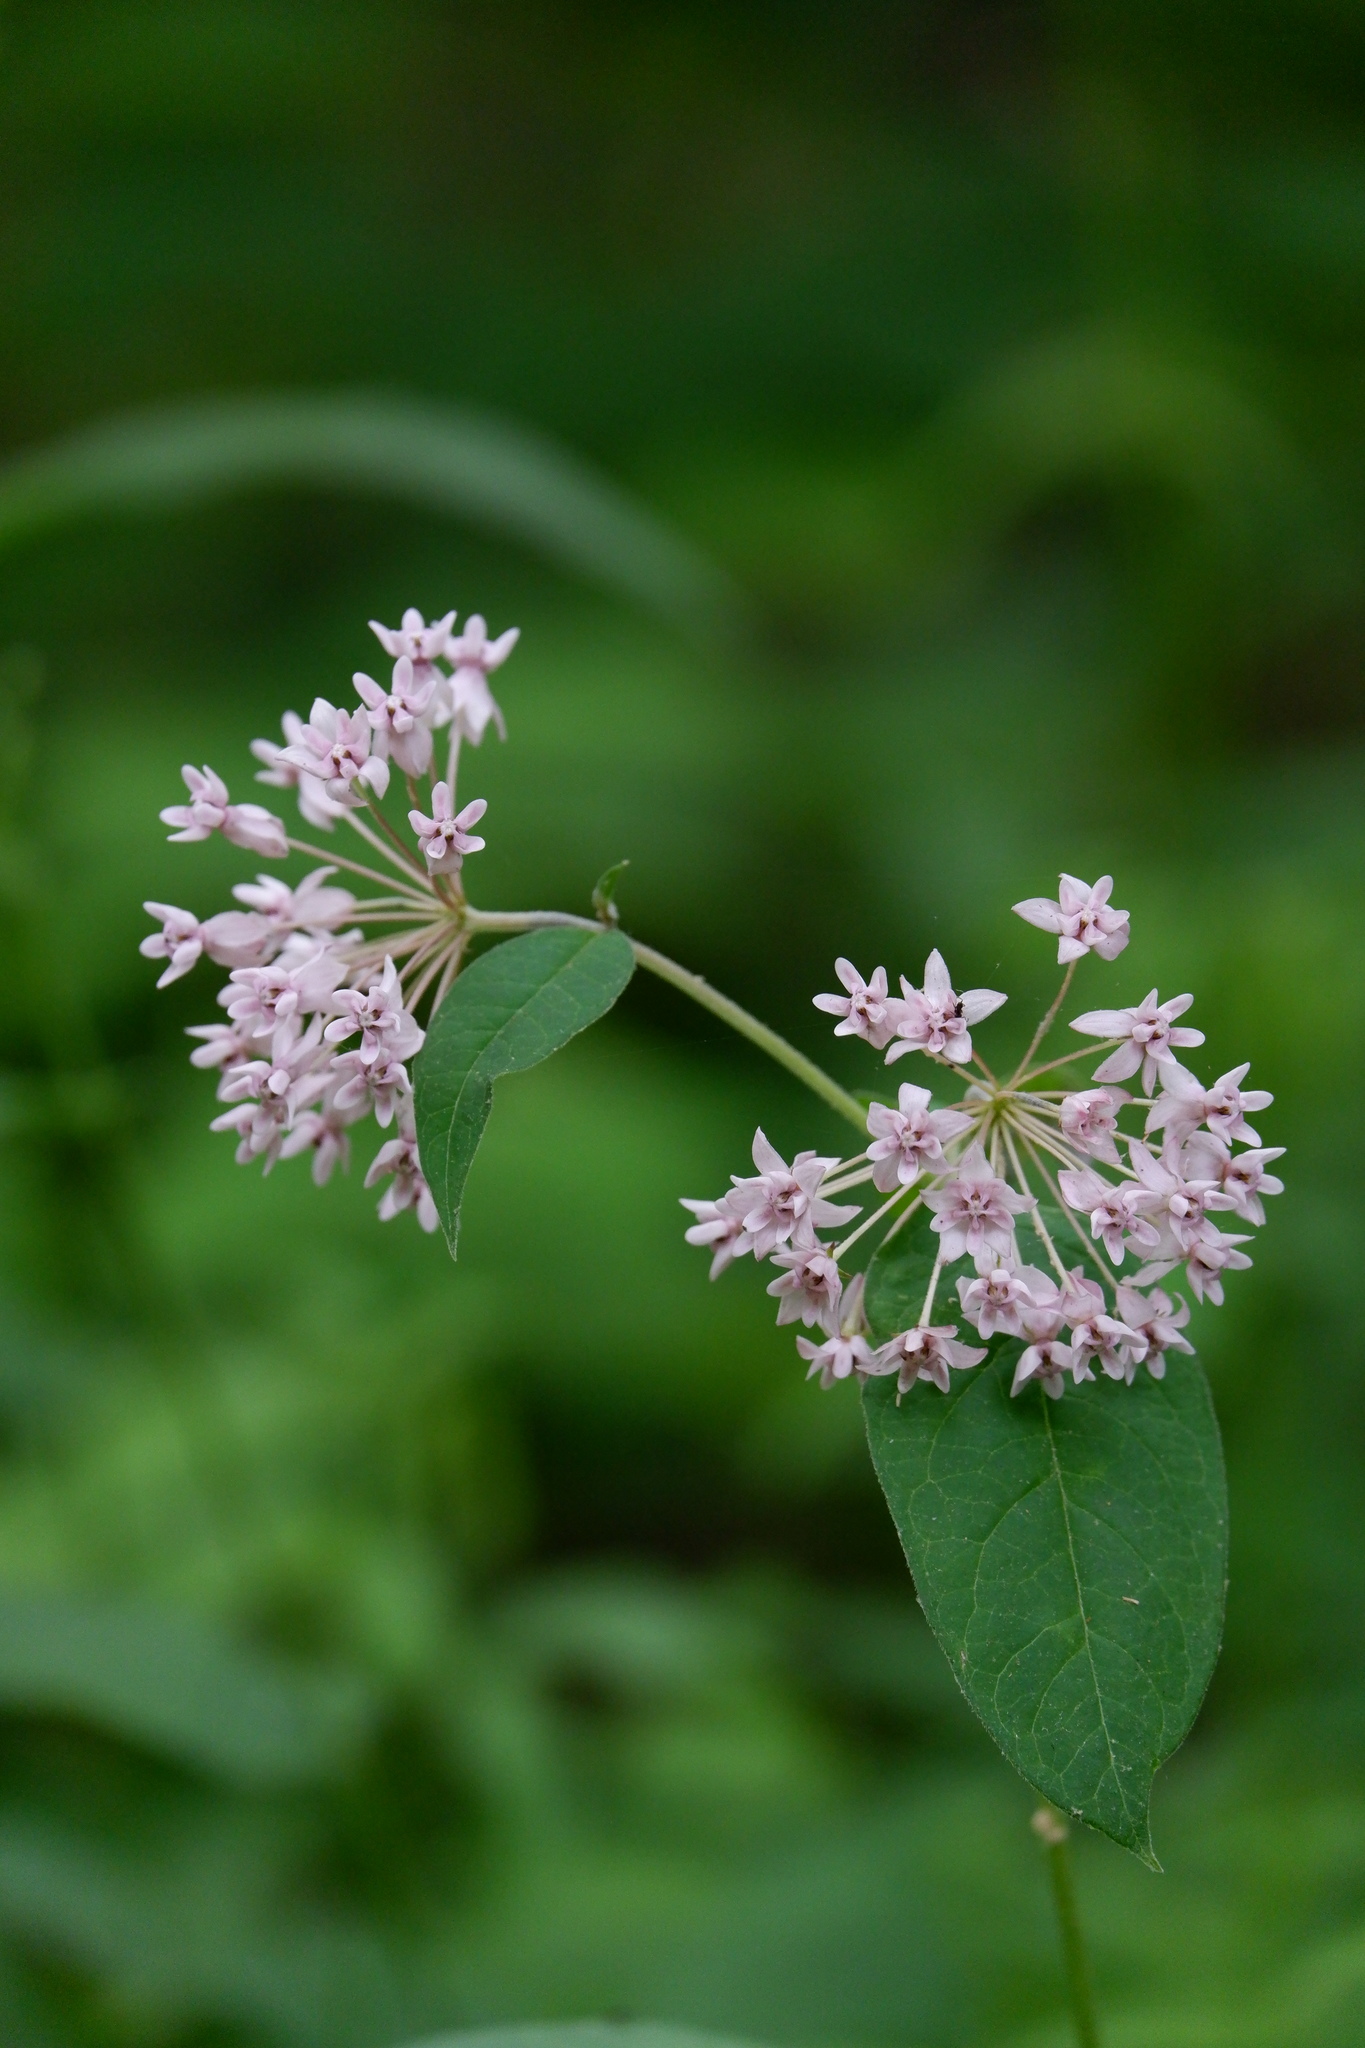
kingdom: Plantae
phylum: Tracheophyta
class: Magnoliopsida
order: Gentianales
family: Apocynaceae
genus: Asclepias
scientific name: Asclepias quadrifolia
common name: Whorled milkweed
